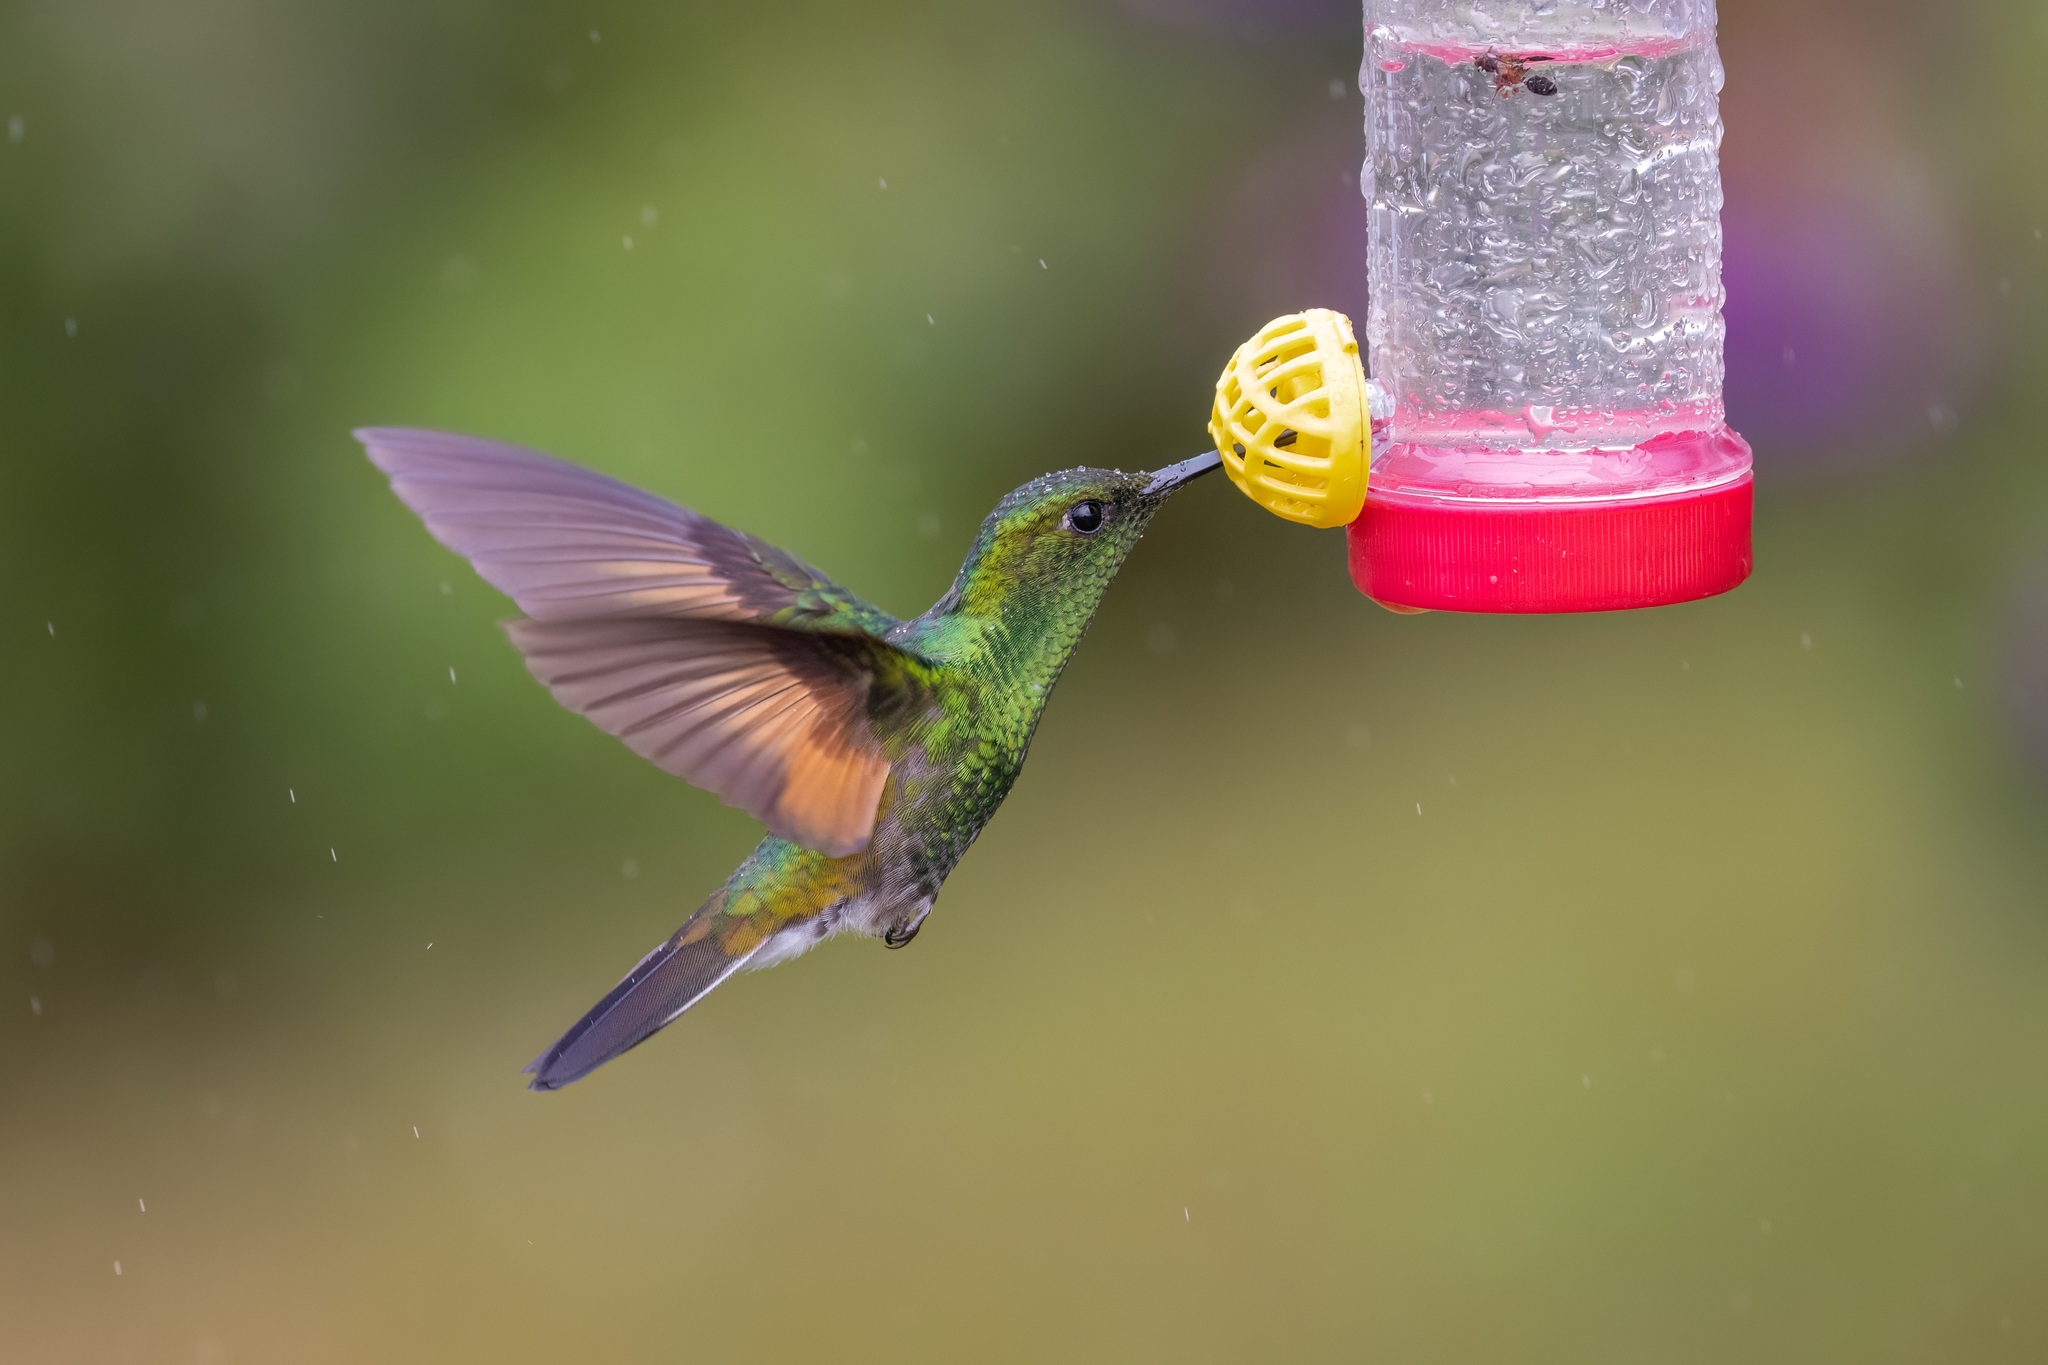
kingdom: Animalia
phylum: Chordata
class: Aves
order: Apodiformes
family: Trochilidae
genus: Eupherusa
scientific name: Eupherusa eximia
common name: Stripe-tailed hummingbird
